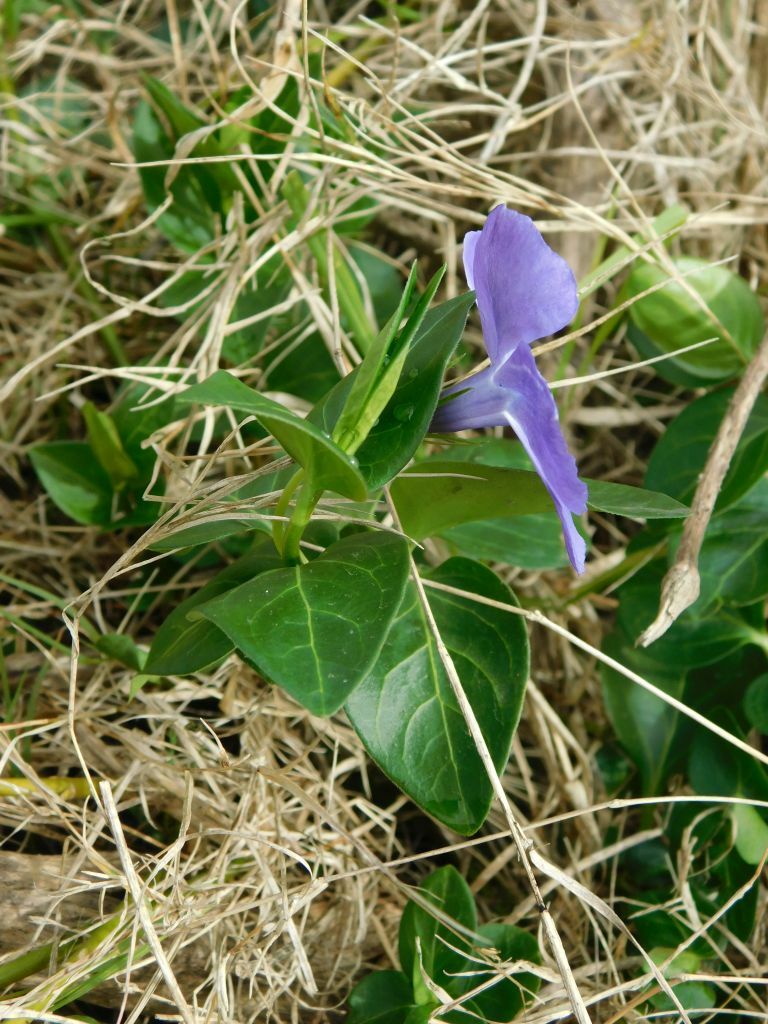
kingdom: Plantae
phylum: Tracheophyta
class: Magnoliopsida
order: Gentianales
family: Apocynaceae
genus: Vinca
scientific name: Vinca major
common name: Greater periwinkle
